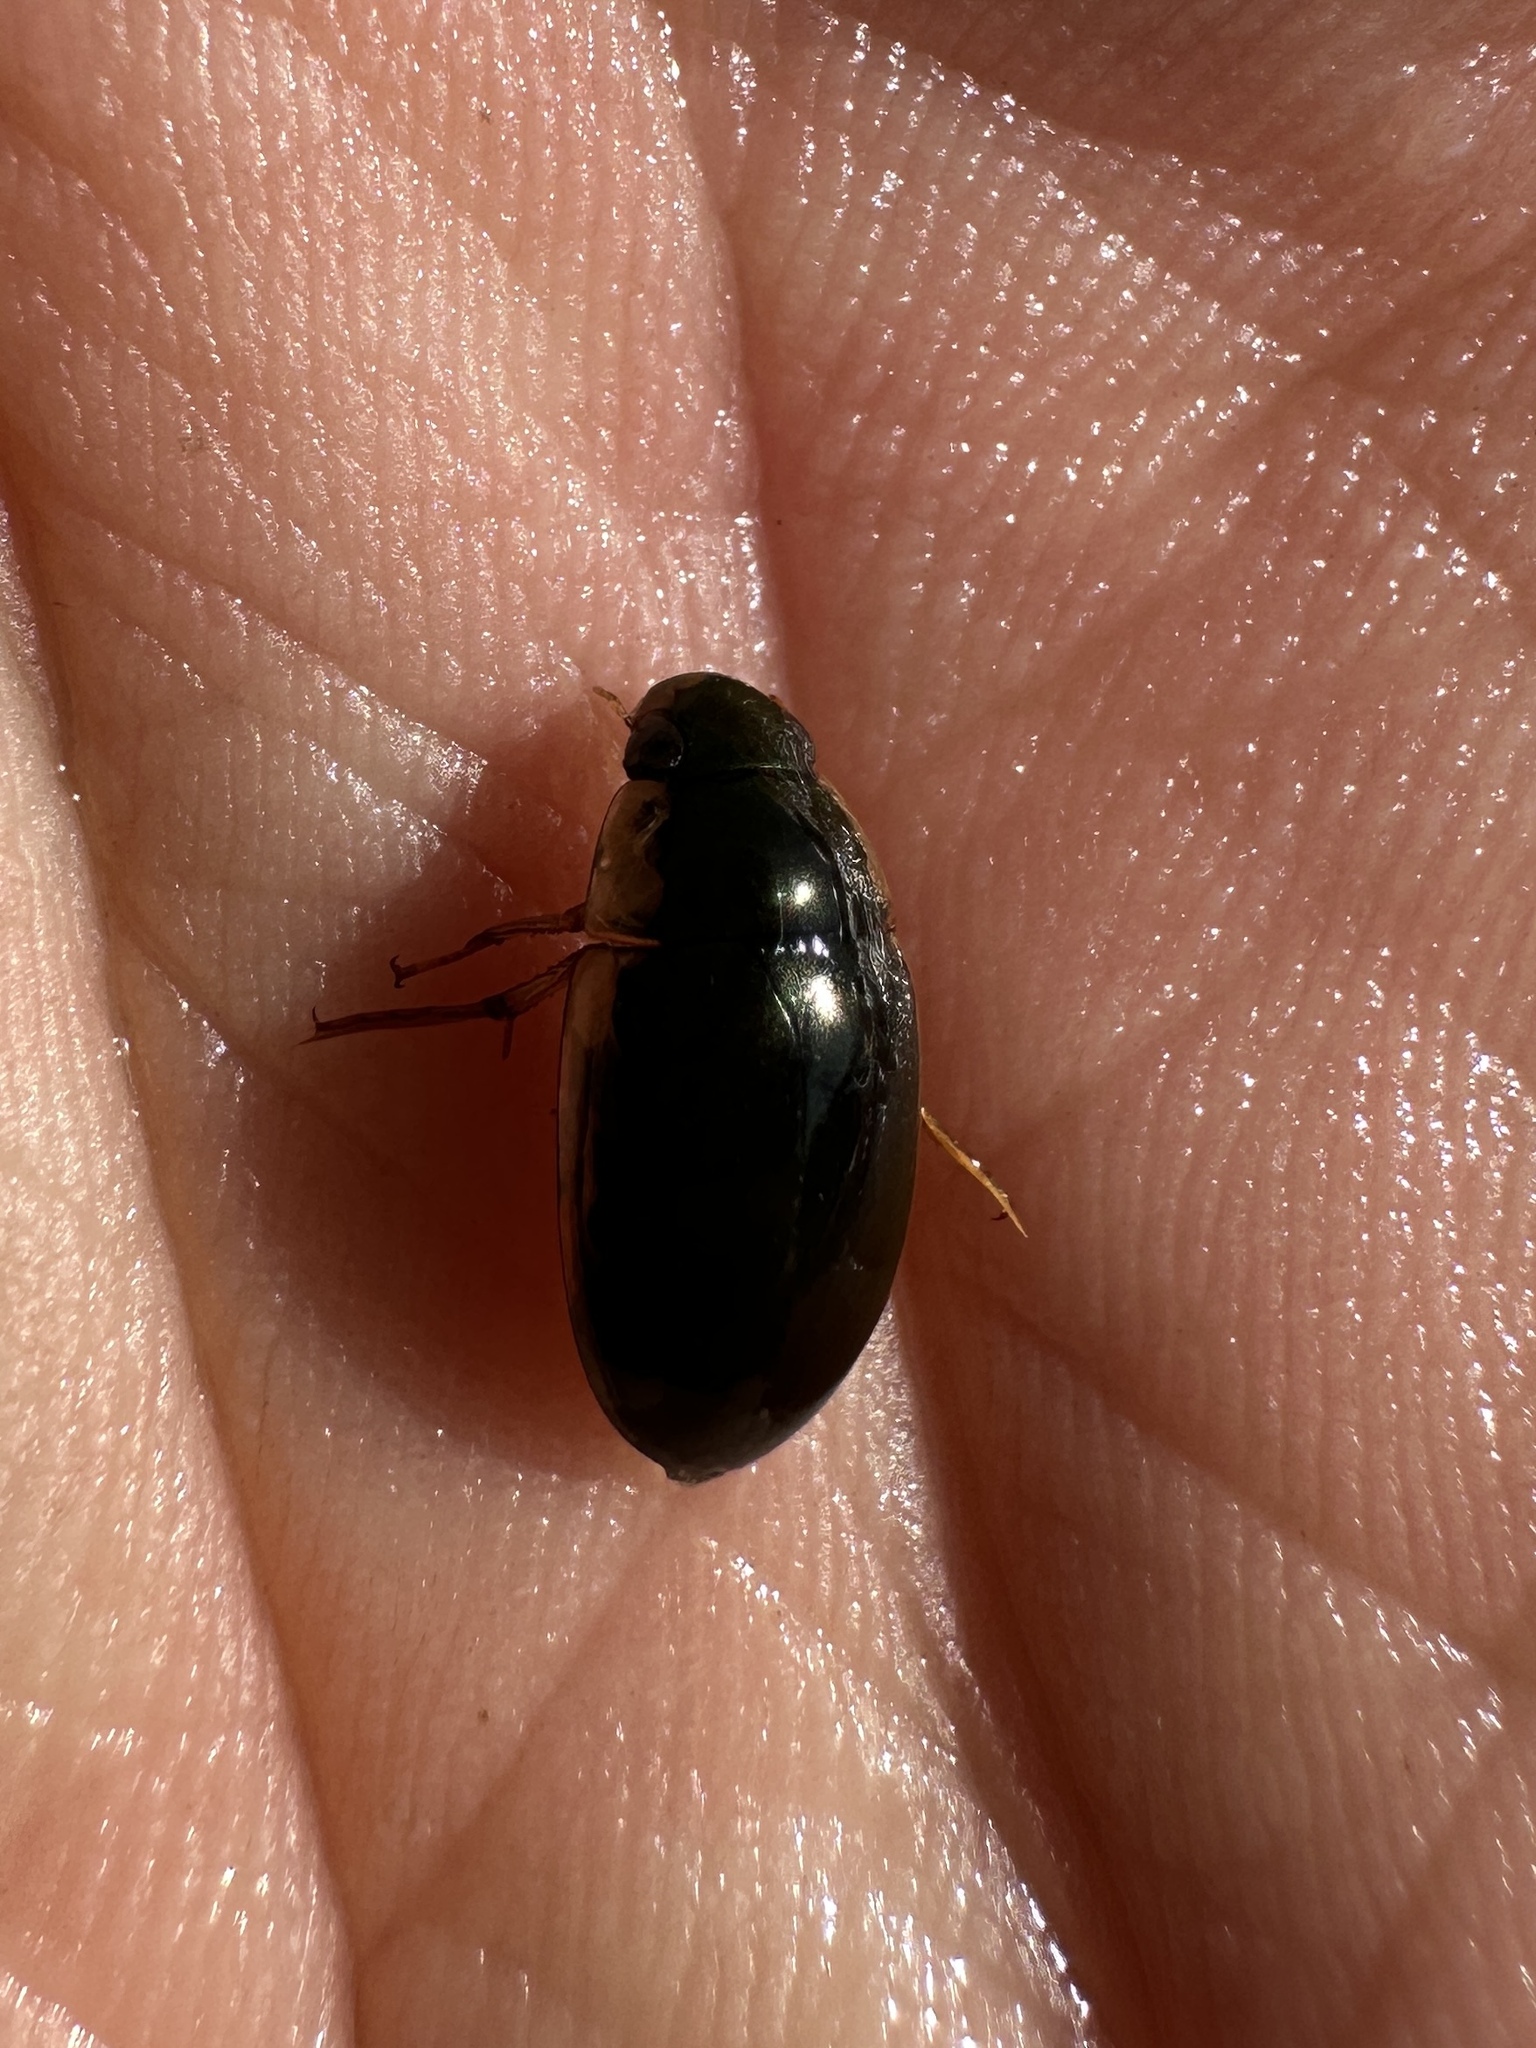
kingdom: Animalia
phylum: Arthropoda
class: Insecta
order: Coleoptera
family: Hydrophilidae
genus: Tropisternus
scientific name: Tropisternus lateralis
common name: Lateral-banded water scavenger beetle
